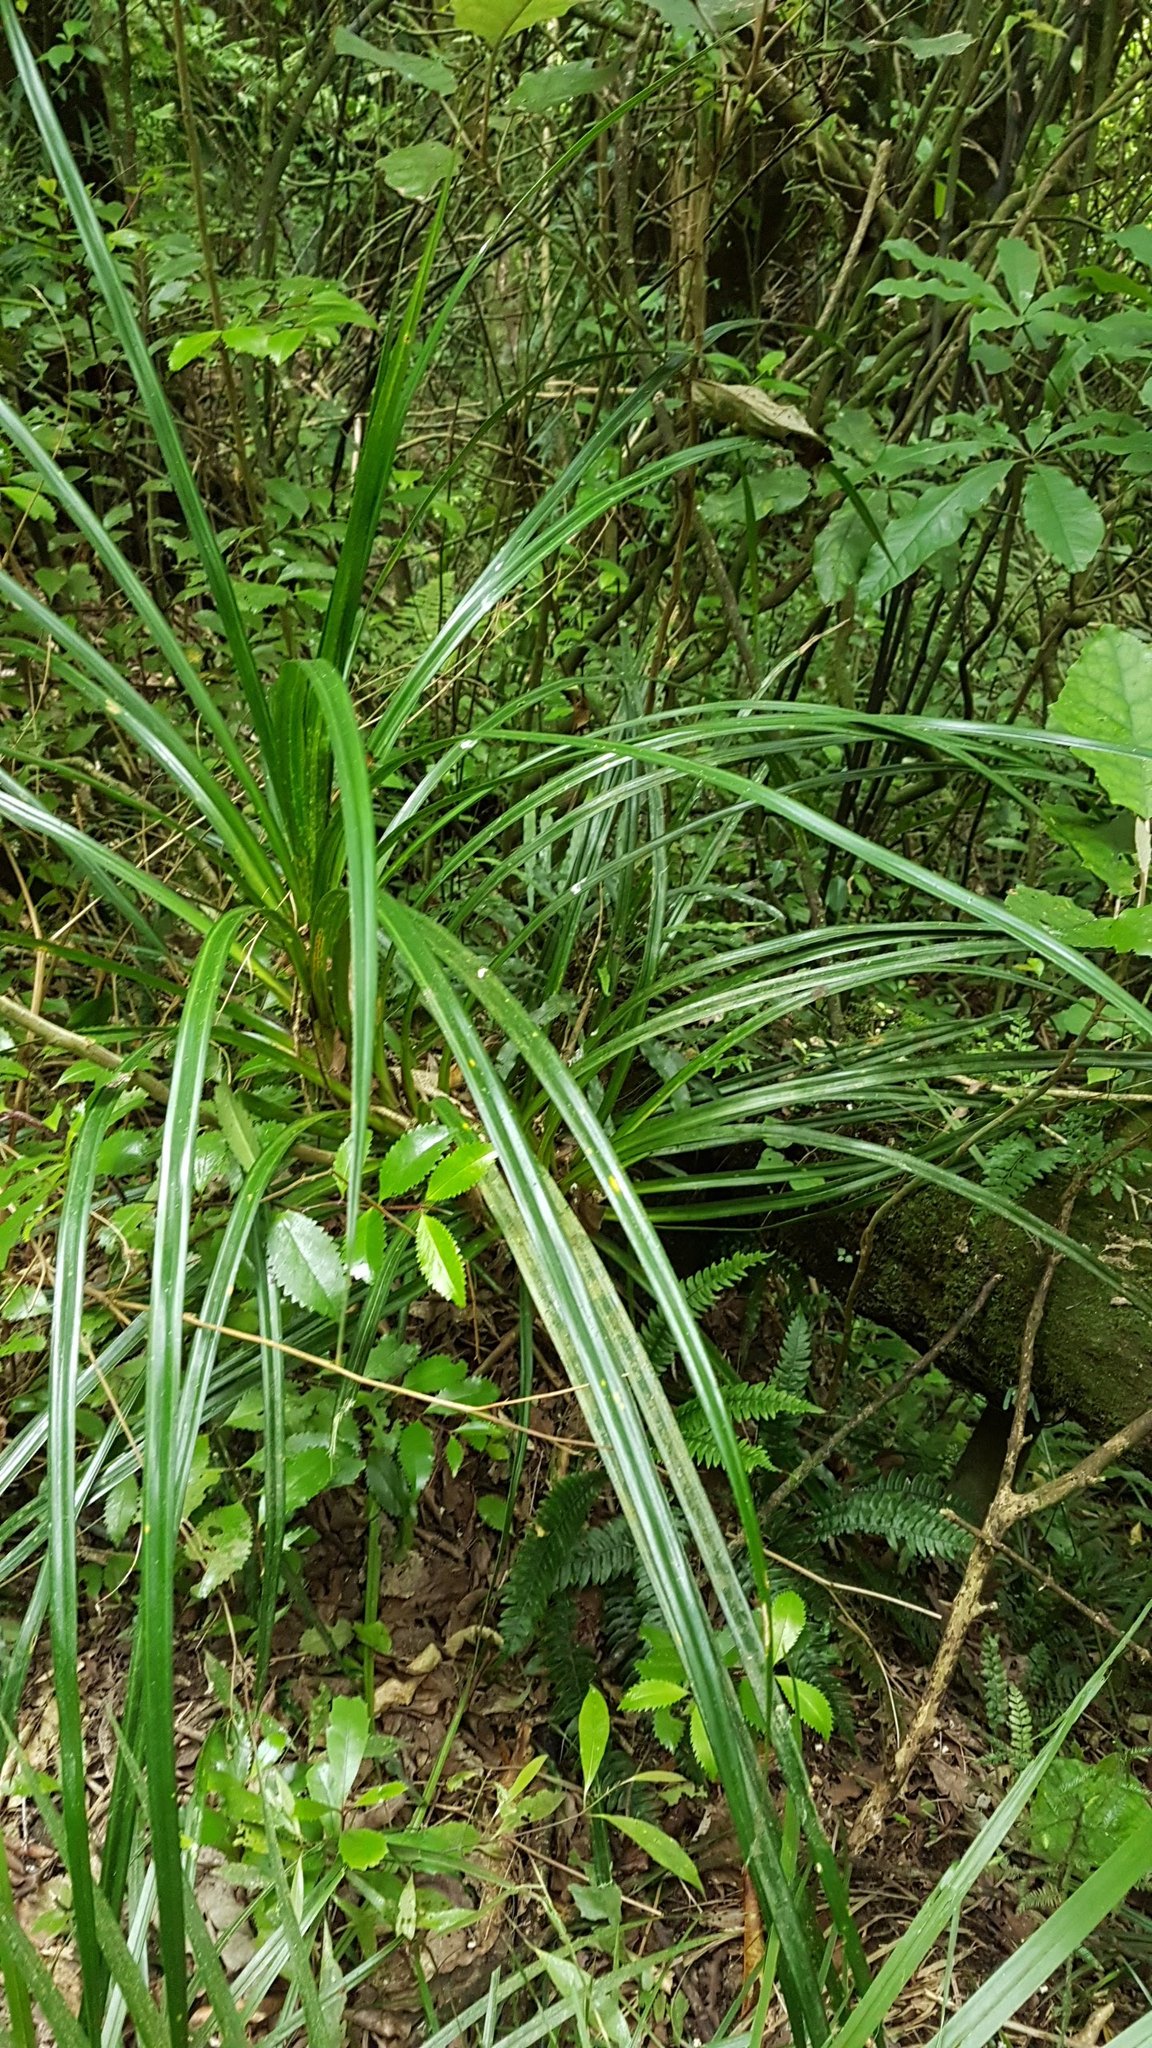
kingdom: Plantae
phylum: Tracheophyta
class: Liliopsida
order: Pandanales
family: Pandanaceae
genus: Freycinetia
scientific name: Freycinetia banksii
